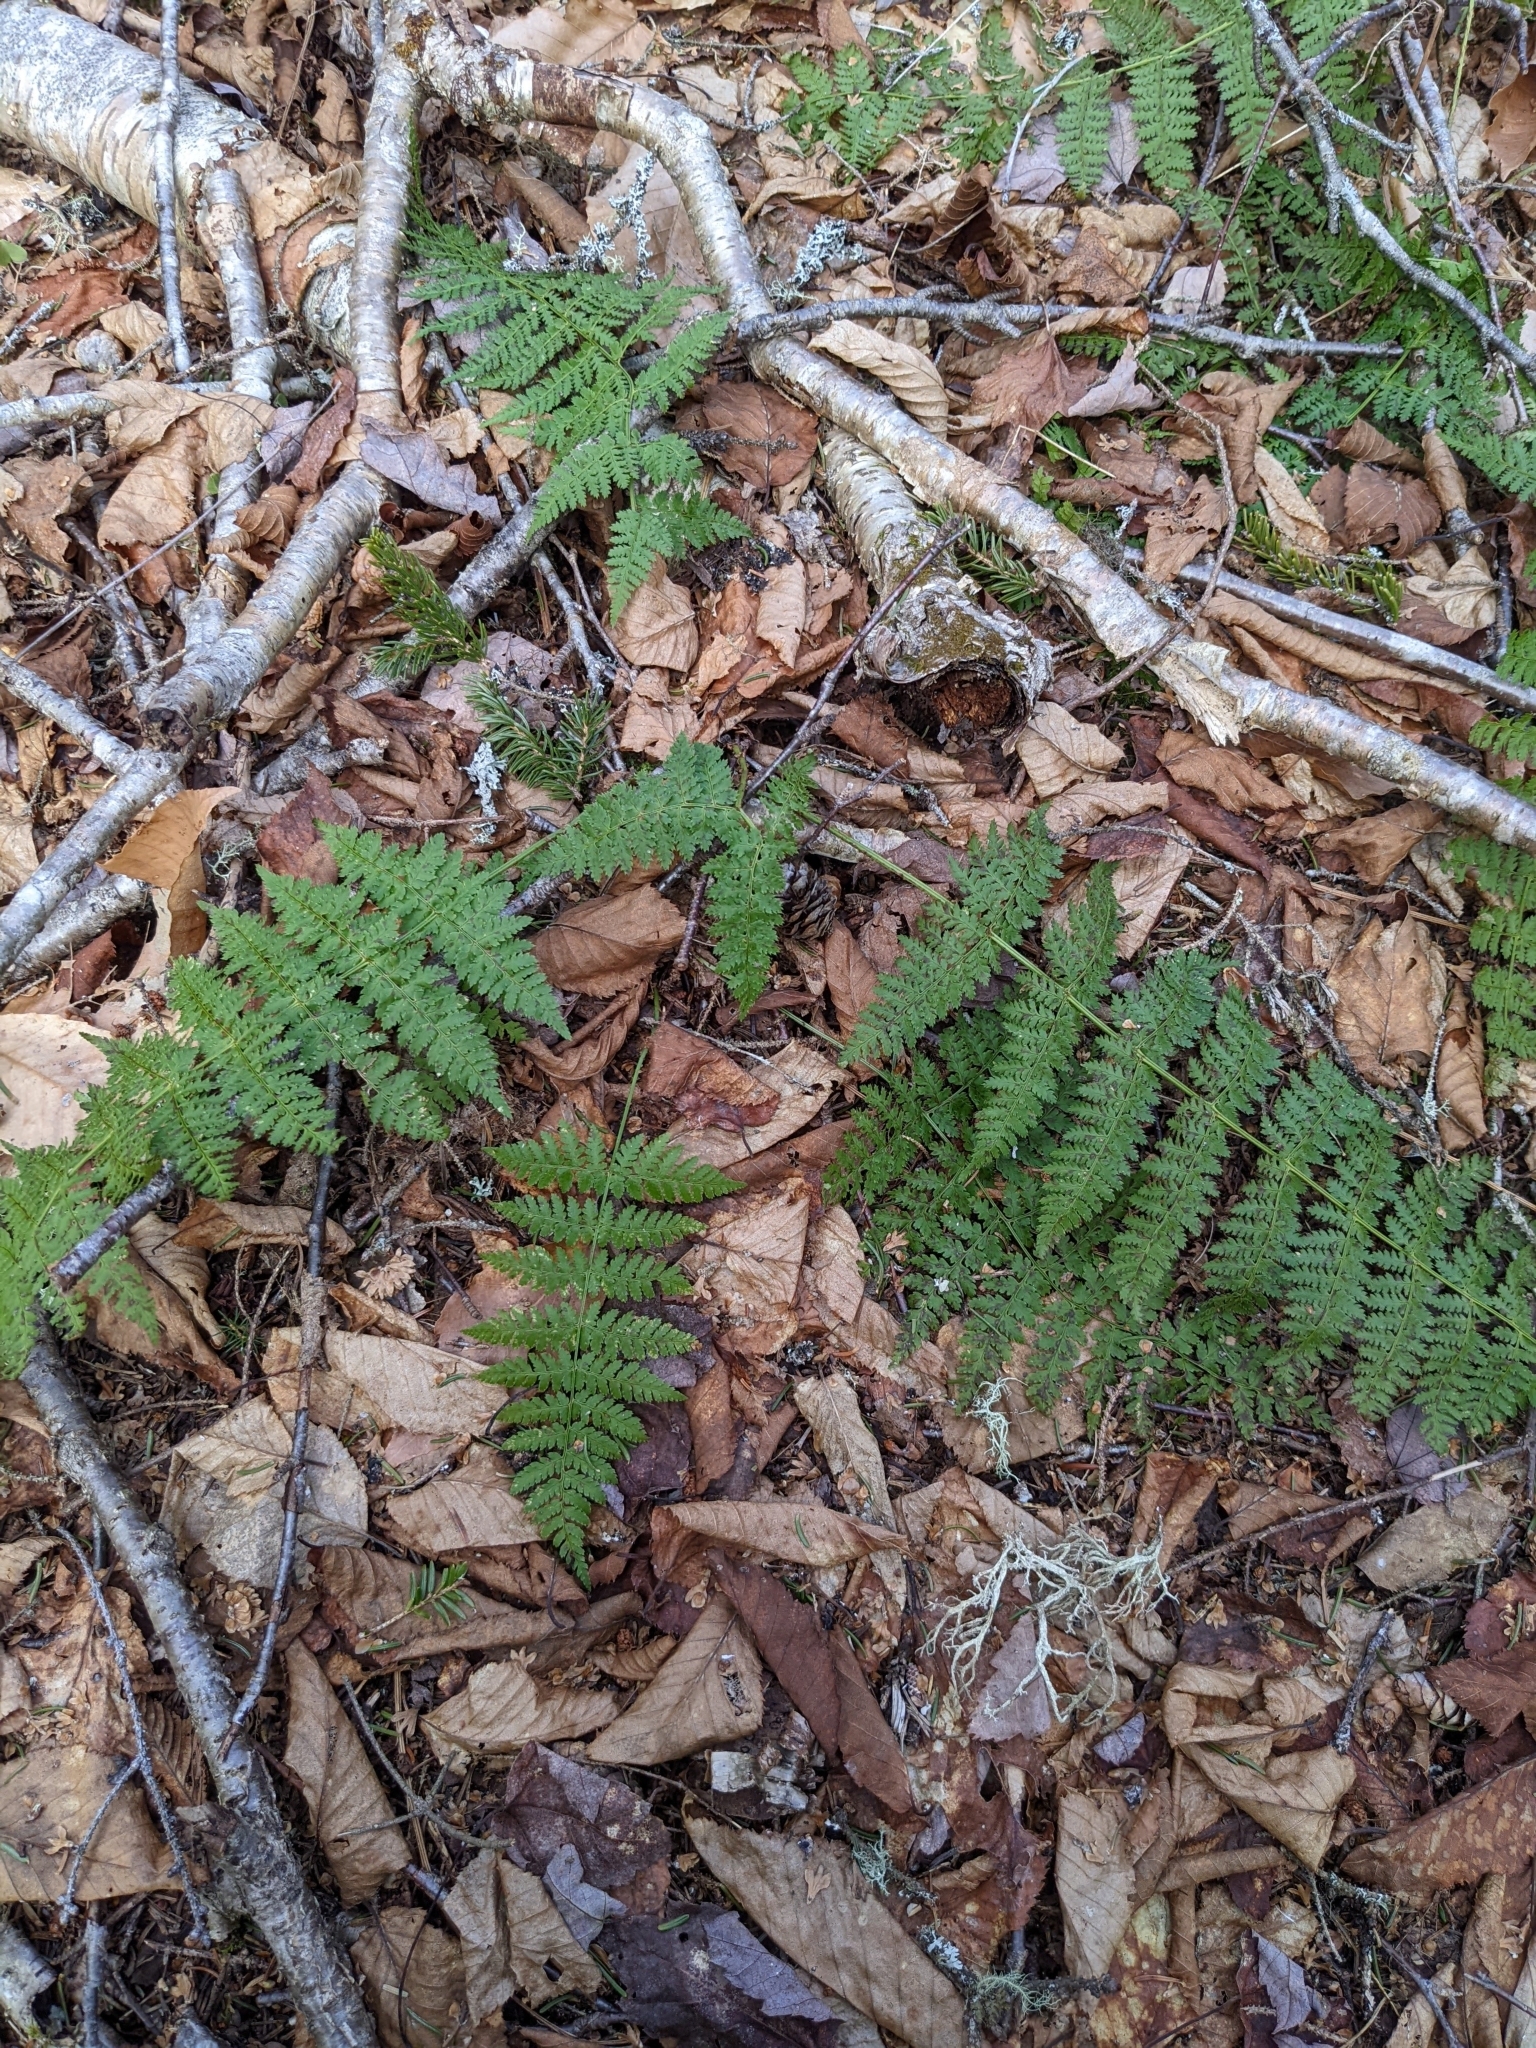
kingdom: Plantae
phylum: Tracheophyta
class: Polypodiopsida
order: Polypodiales
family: Dryopteridaceae
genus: Dryopteris
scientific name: Dryopteris intermedia
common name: Evergreen wood fern
